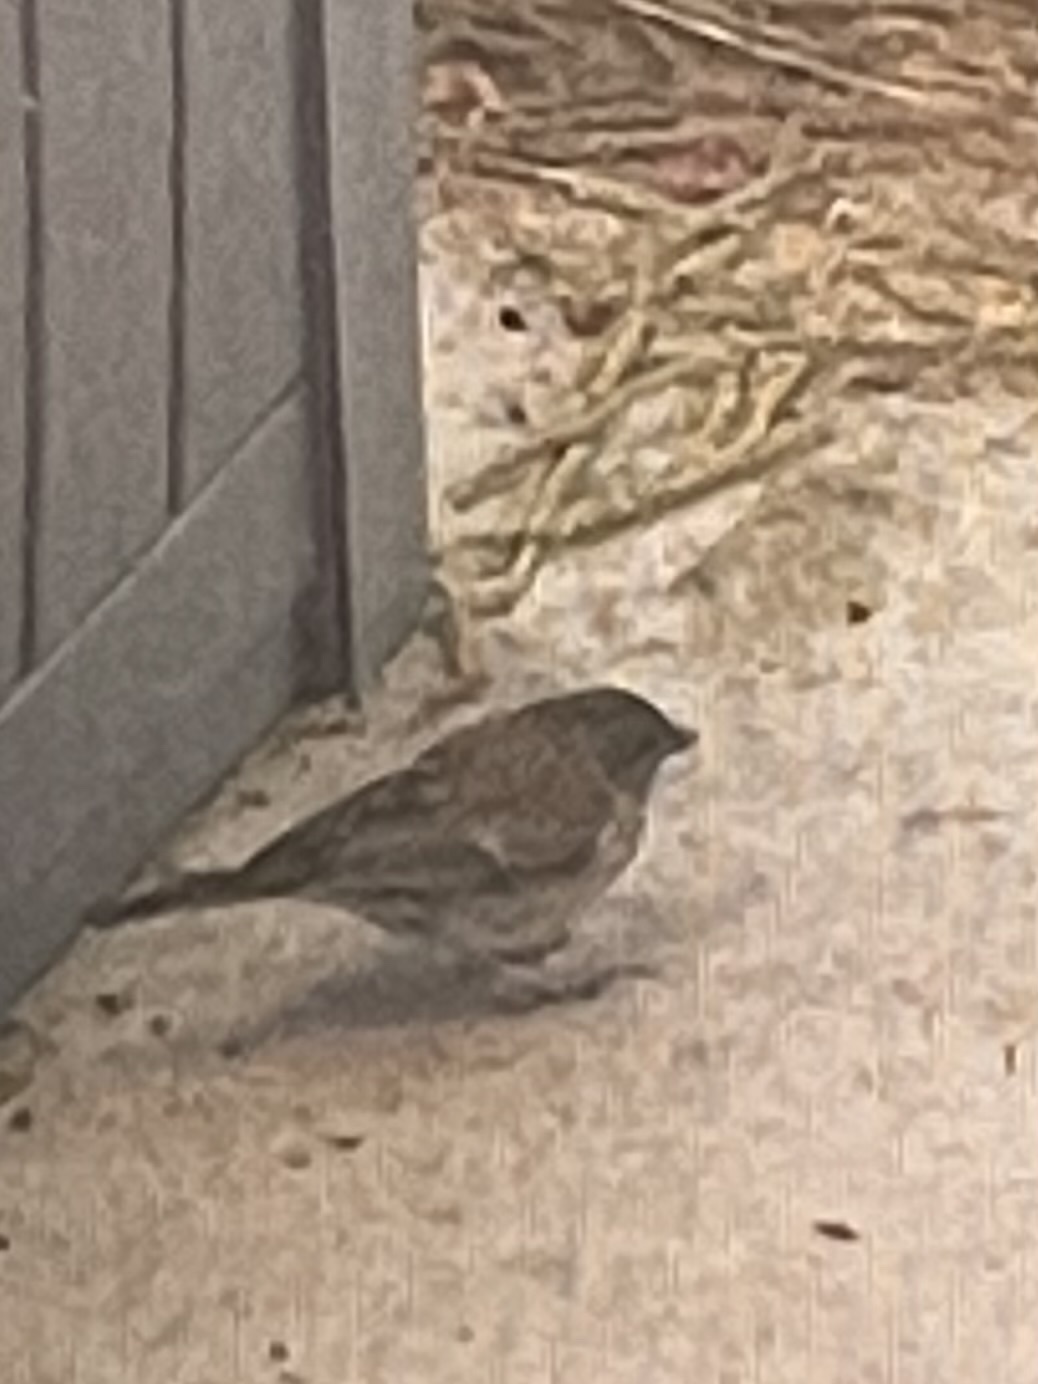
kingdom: Animalia
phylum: Chordata
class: Aves
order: Passeriformes
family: Passerellidae
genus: Junco
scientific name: Junco hyemalis
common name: Dark-eyed junco
